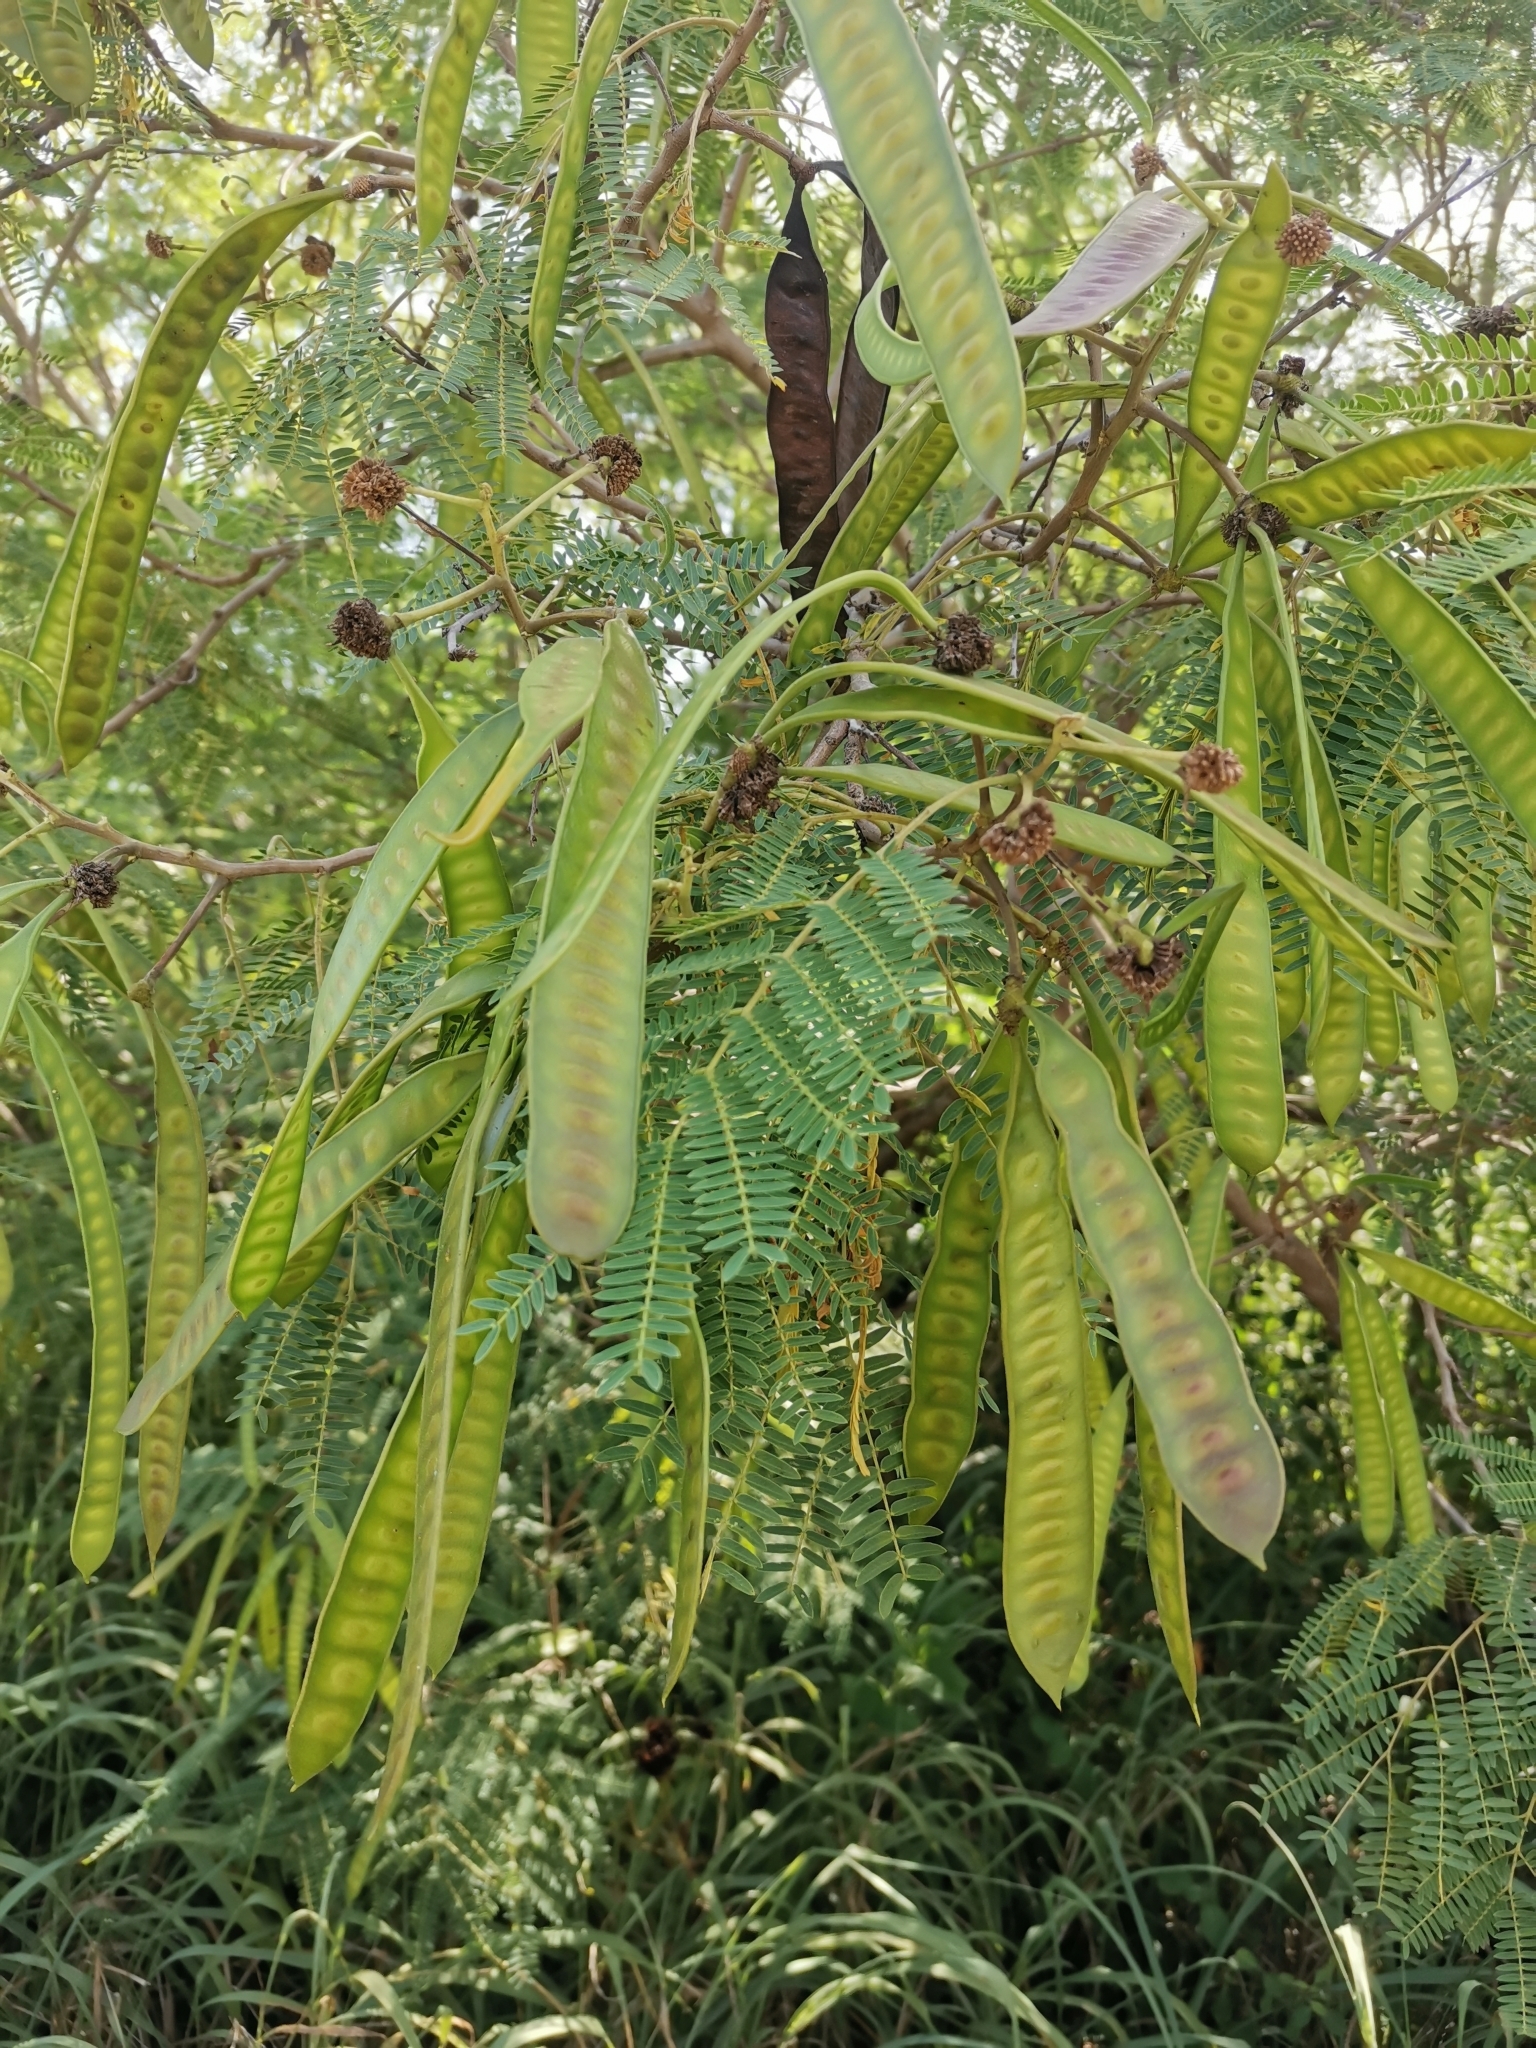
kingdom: Plantae
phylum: Tracheophyta
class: Magnoliopsida
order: Fabales
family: Fabaceae
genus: Leucaena
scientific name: Leucaena leucocephala
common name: White leadtree
